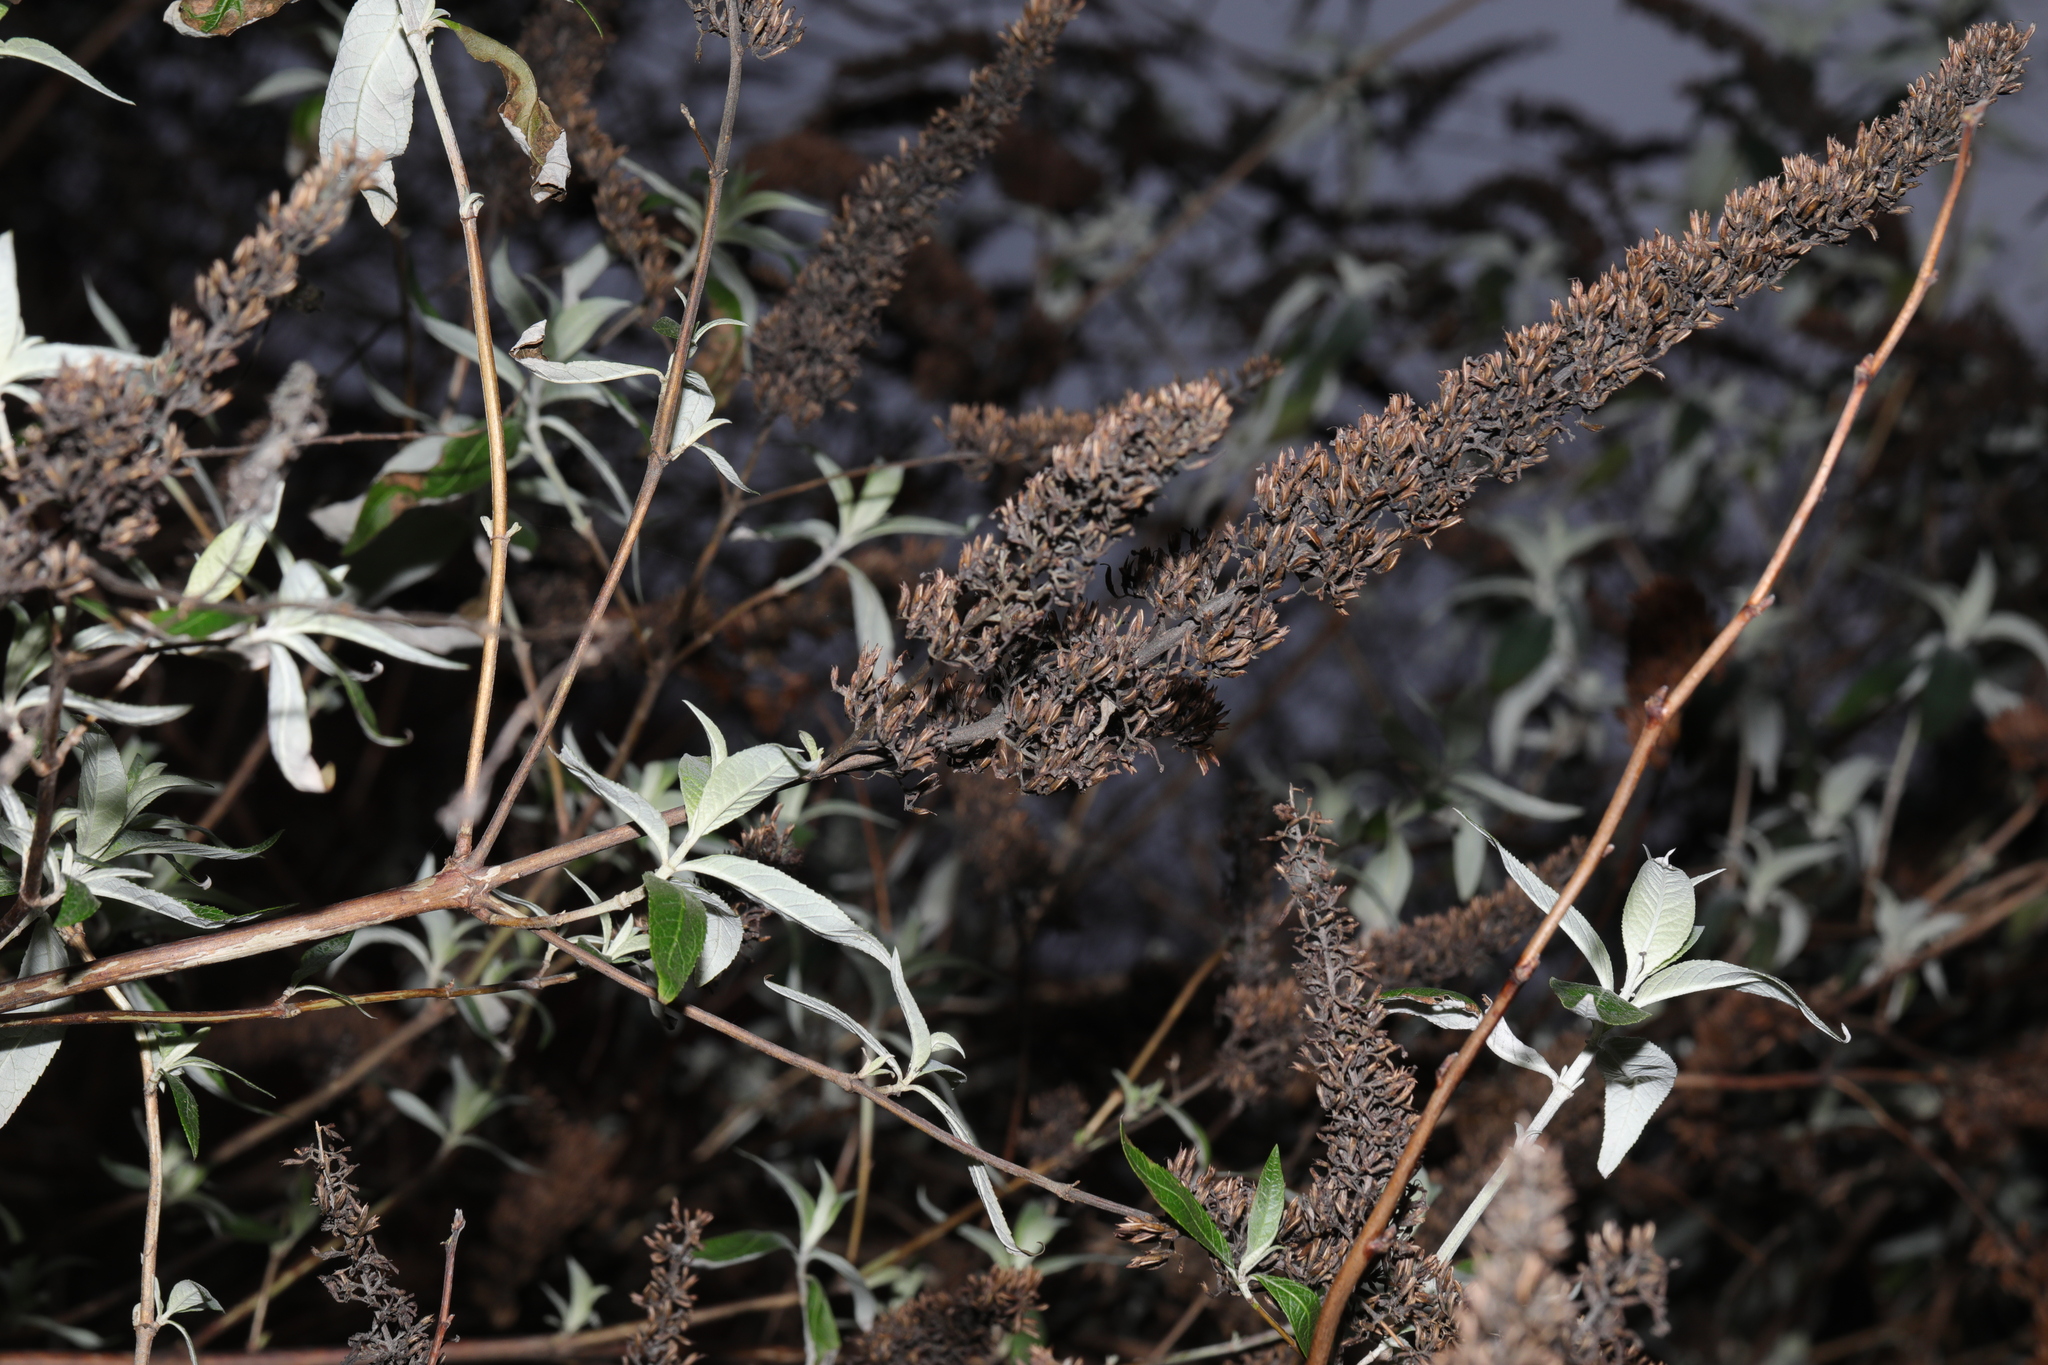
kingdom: Plantae
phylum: Tracheophyta
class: Magnoliopsida
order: Lamiales
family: Scrophulariaceae
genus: Buddleja
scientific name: Buddleja davidii
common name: Butterfly-bush
